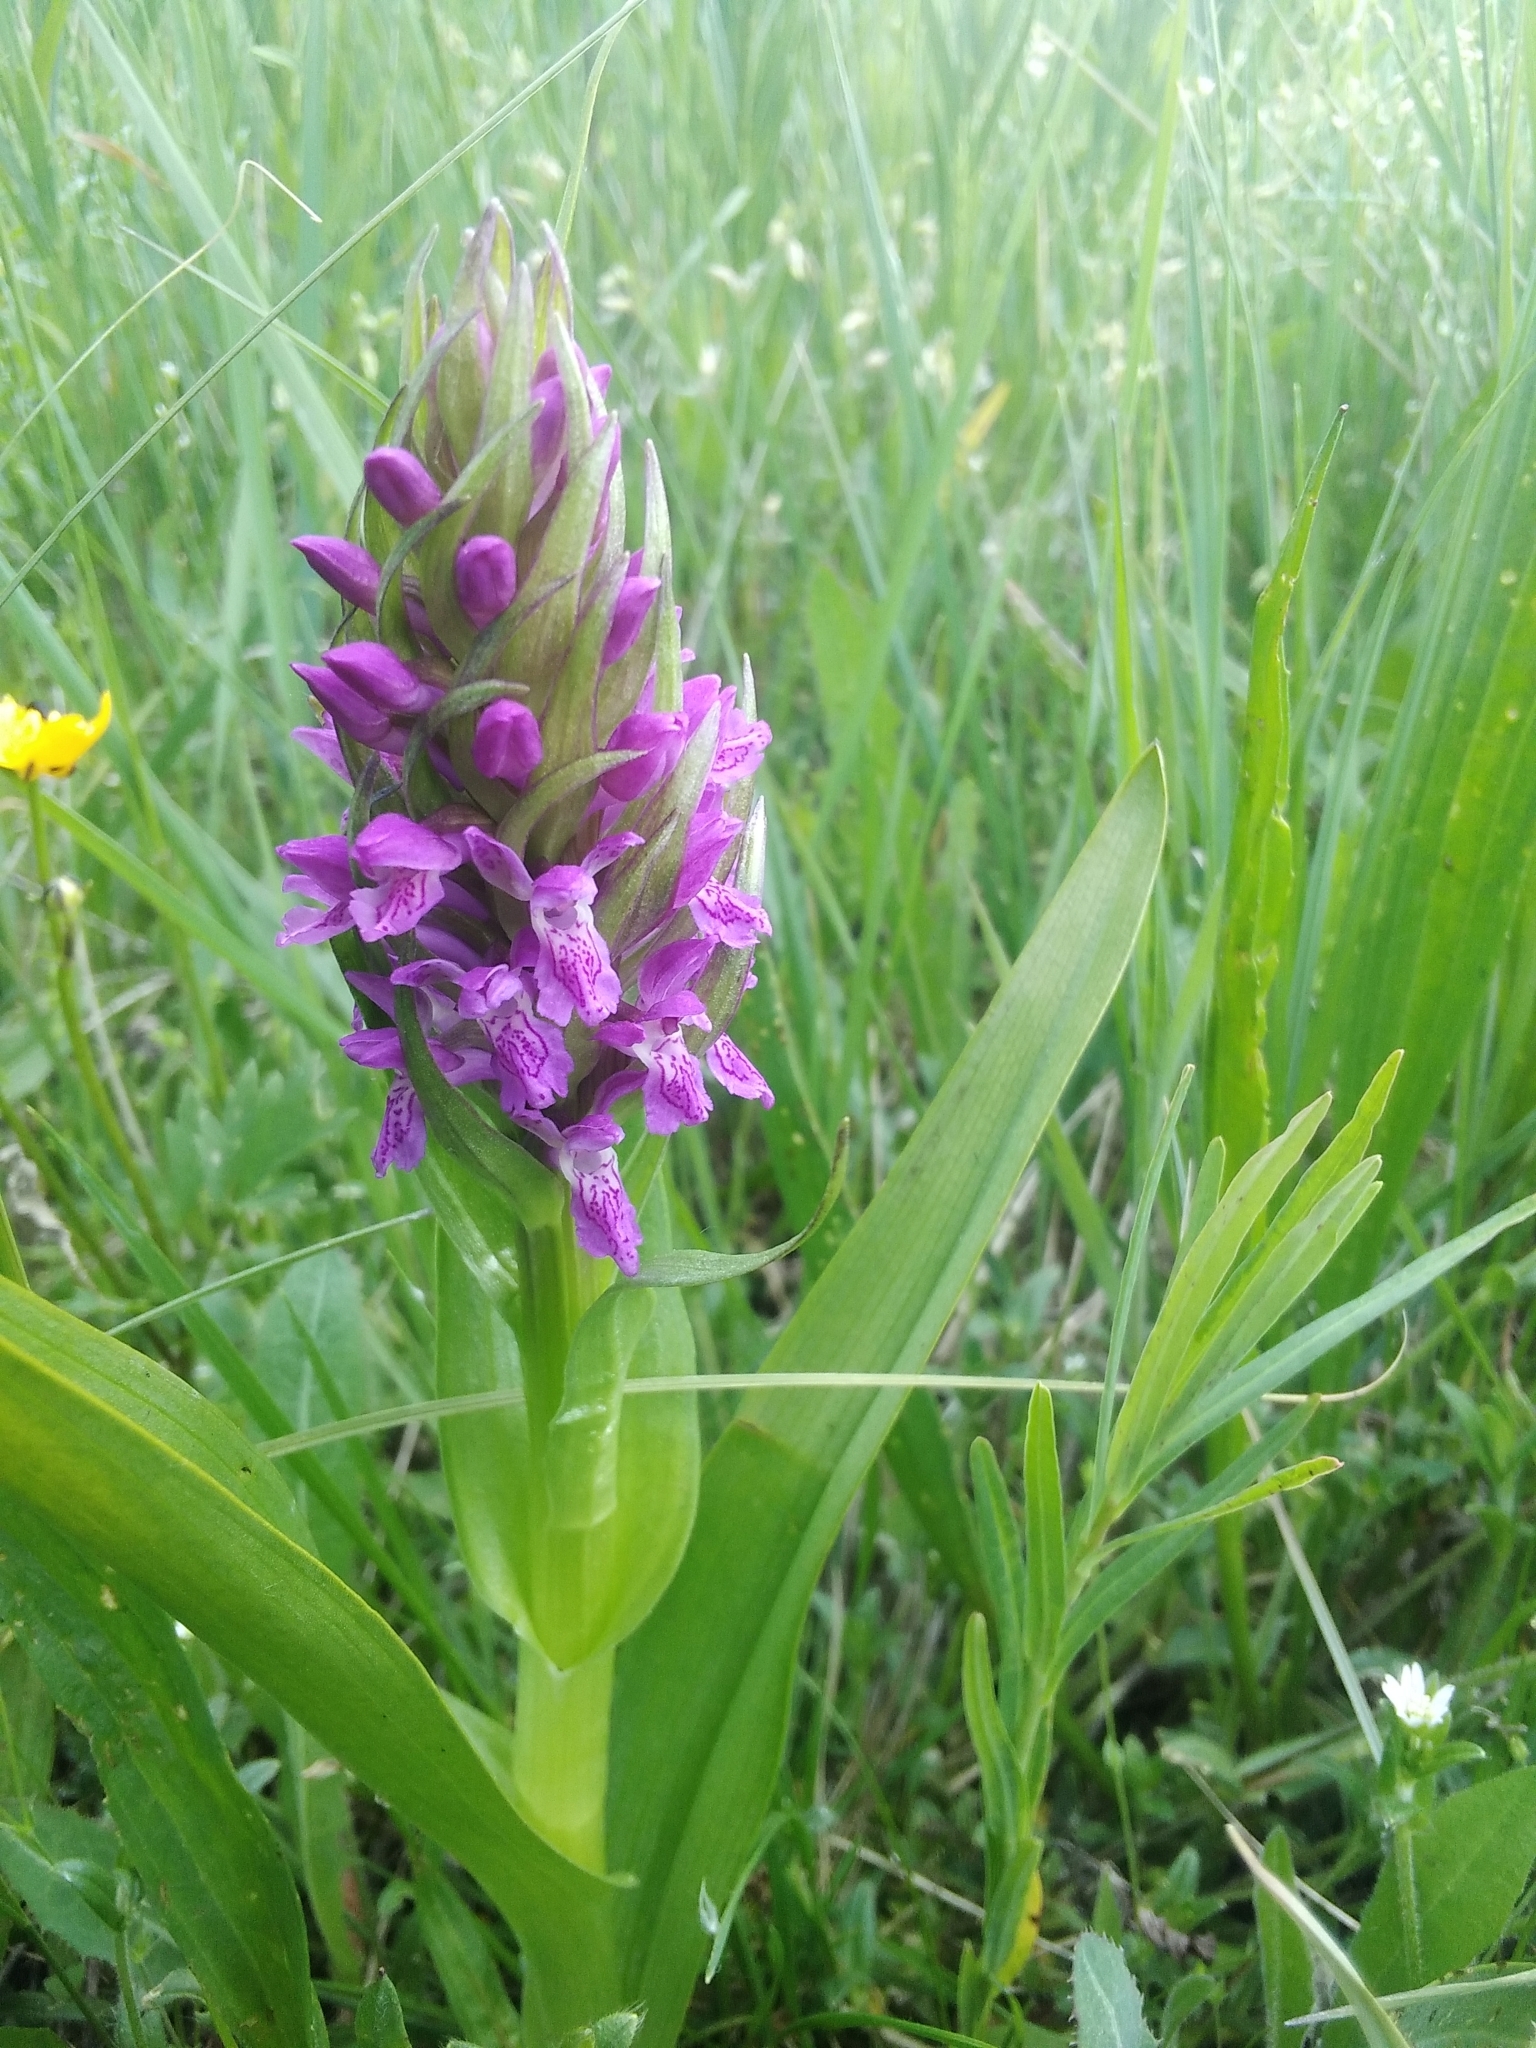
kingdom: Plantae
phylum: Tracheophyta
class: Liliopsida
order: Asparagales
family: Orchidaceae
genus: Dactylorhiza
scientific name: Dactylorhiza incarnata
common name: Early marsh-orchid
